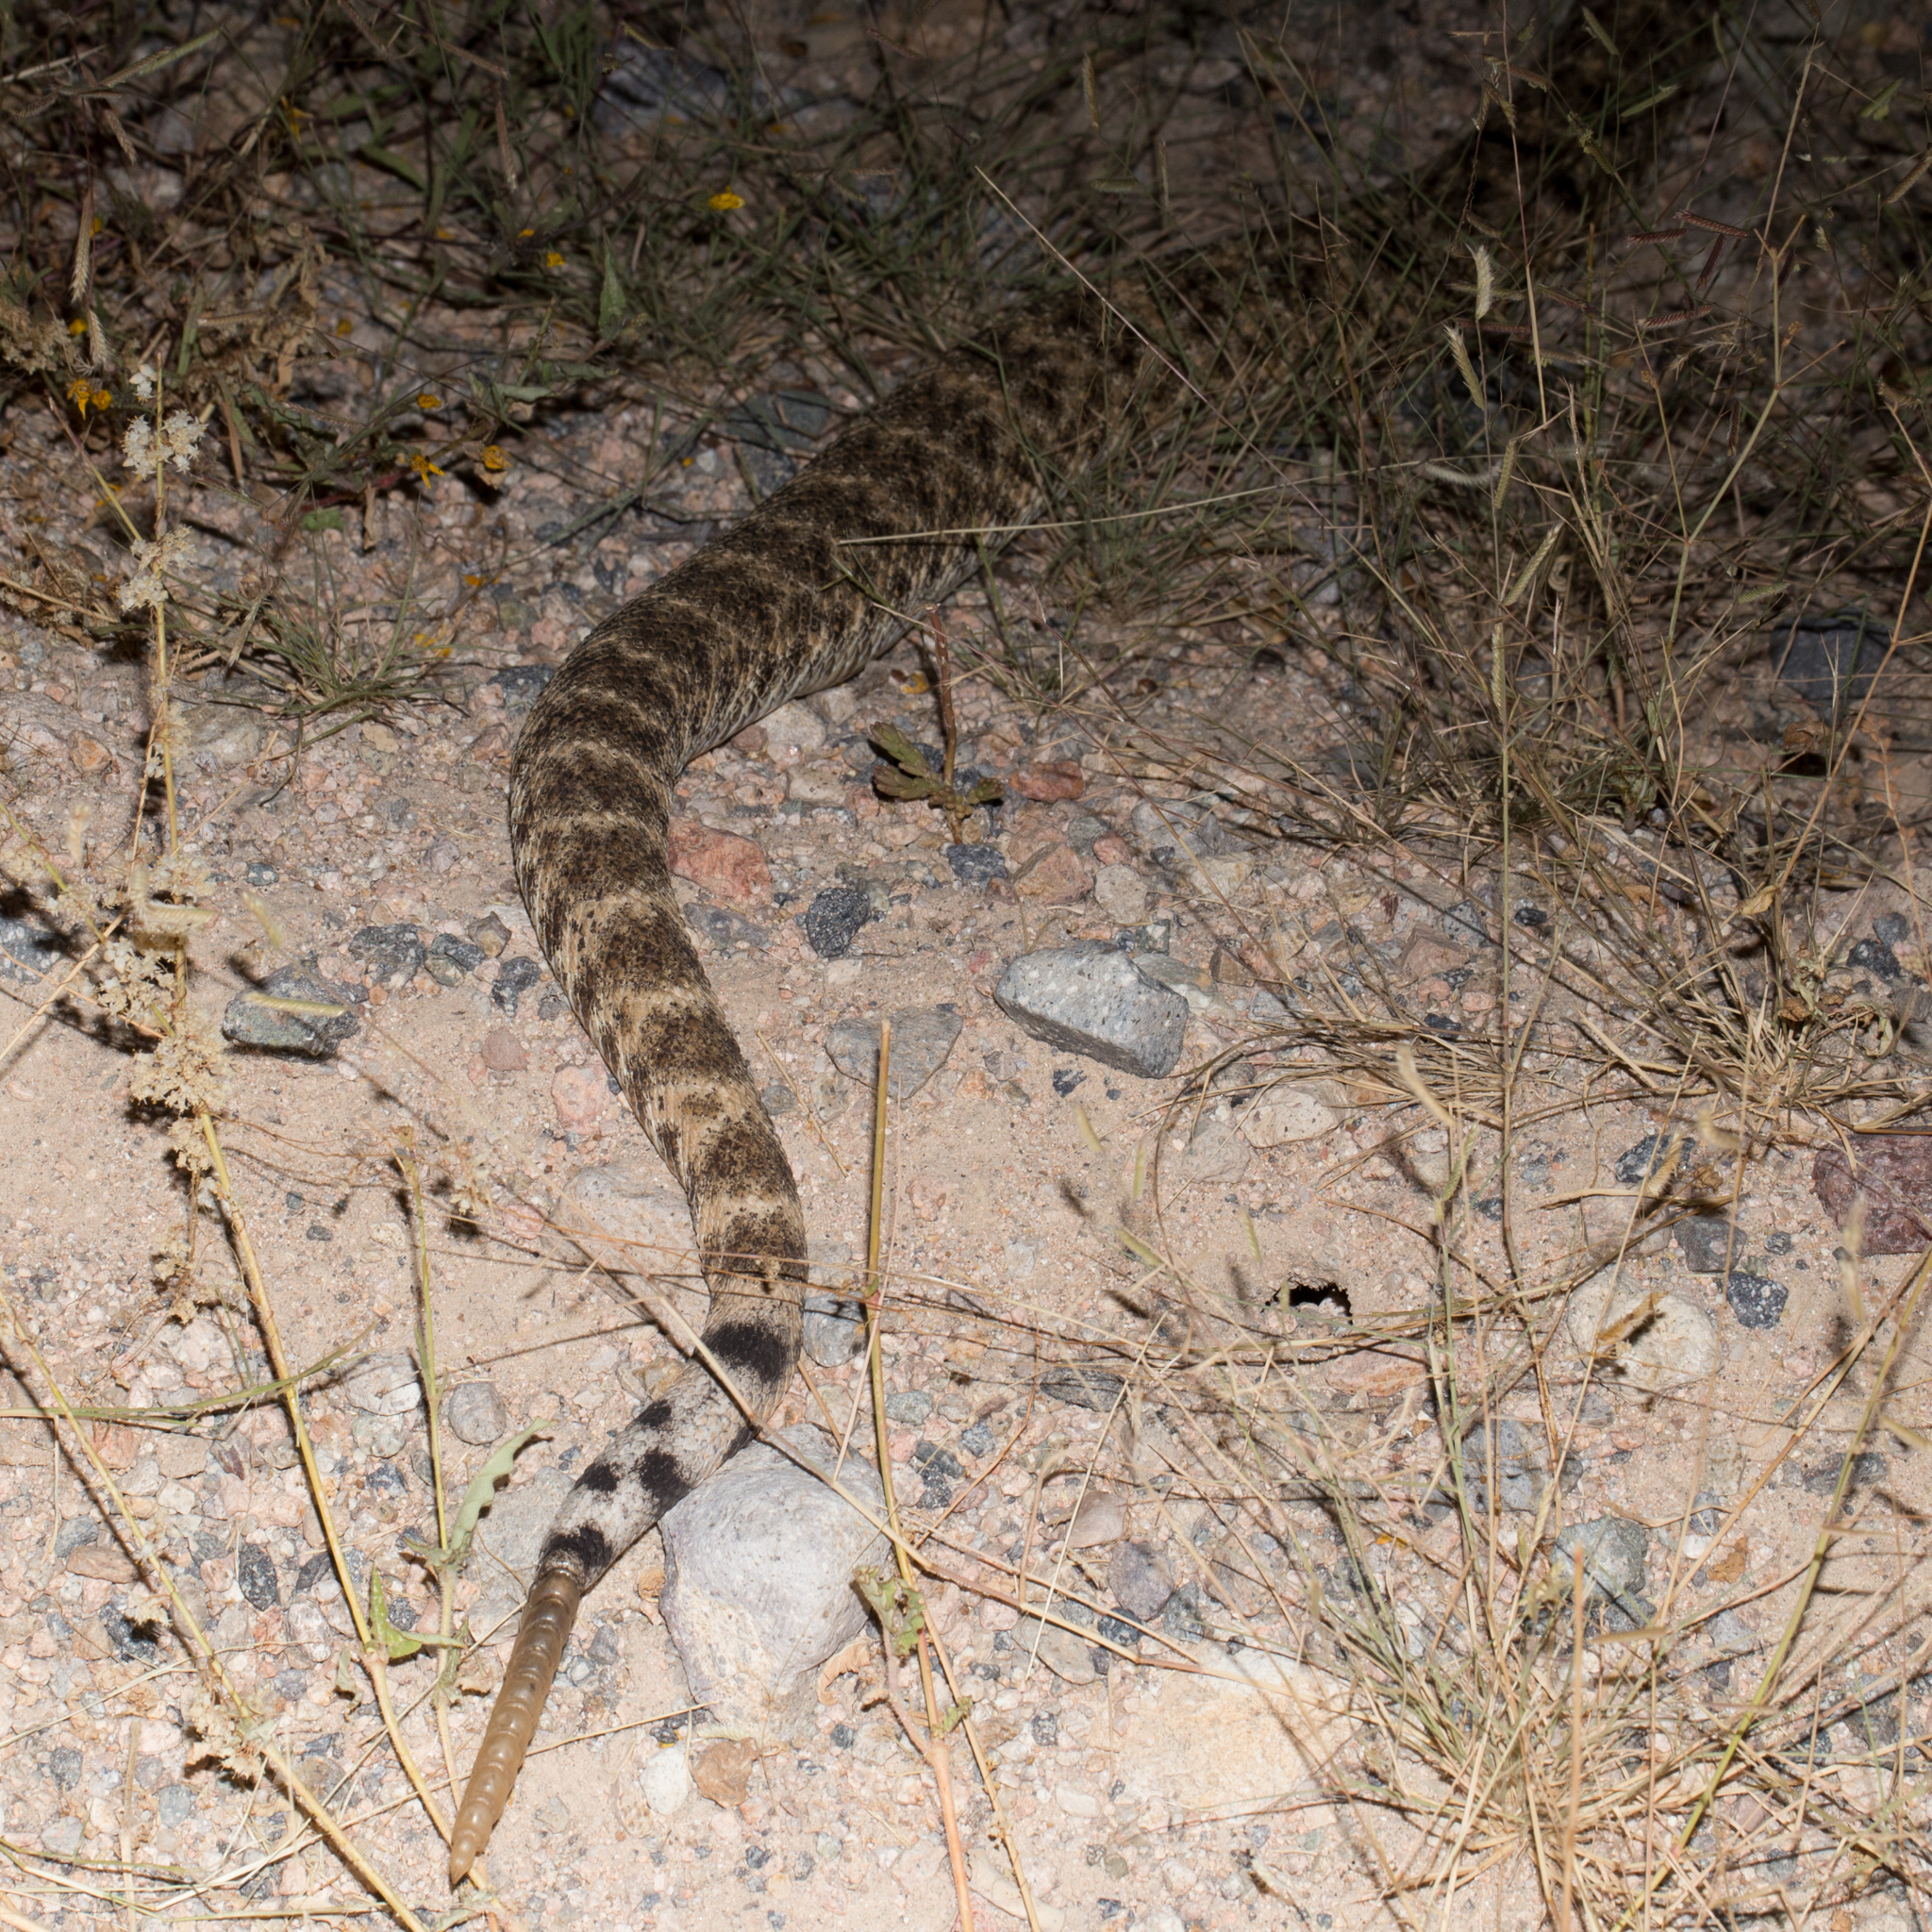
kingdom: Animalia
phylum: Chordata
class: Squamata
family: Viperidae
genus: Crotalus
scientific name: Crotalus mitchellii
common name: Speckled rattlesnake
